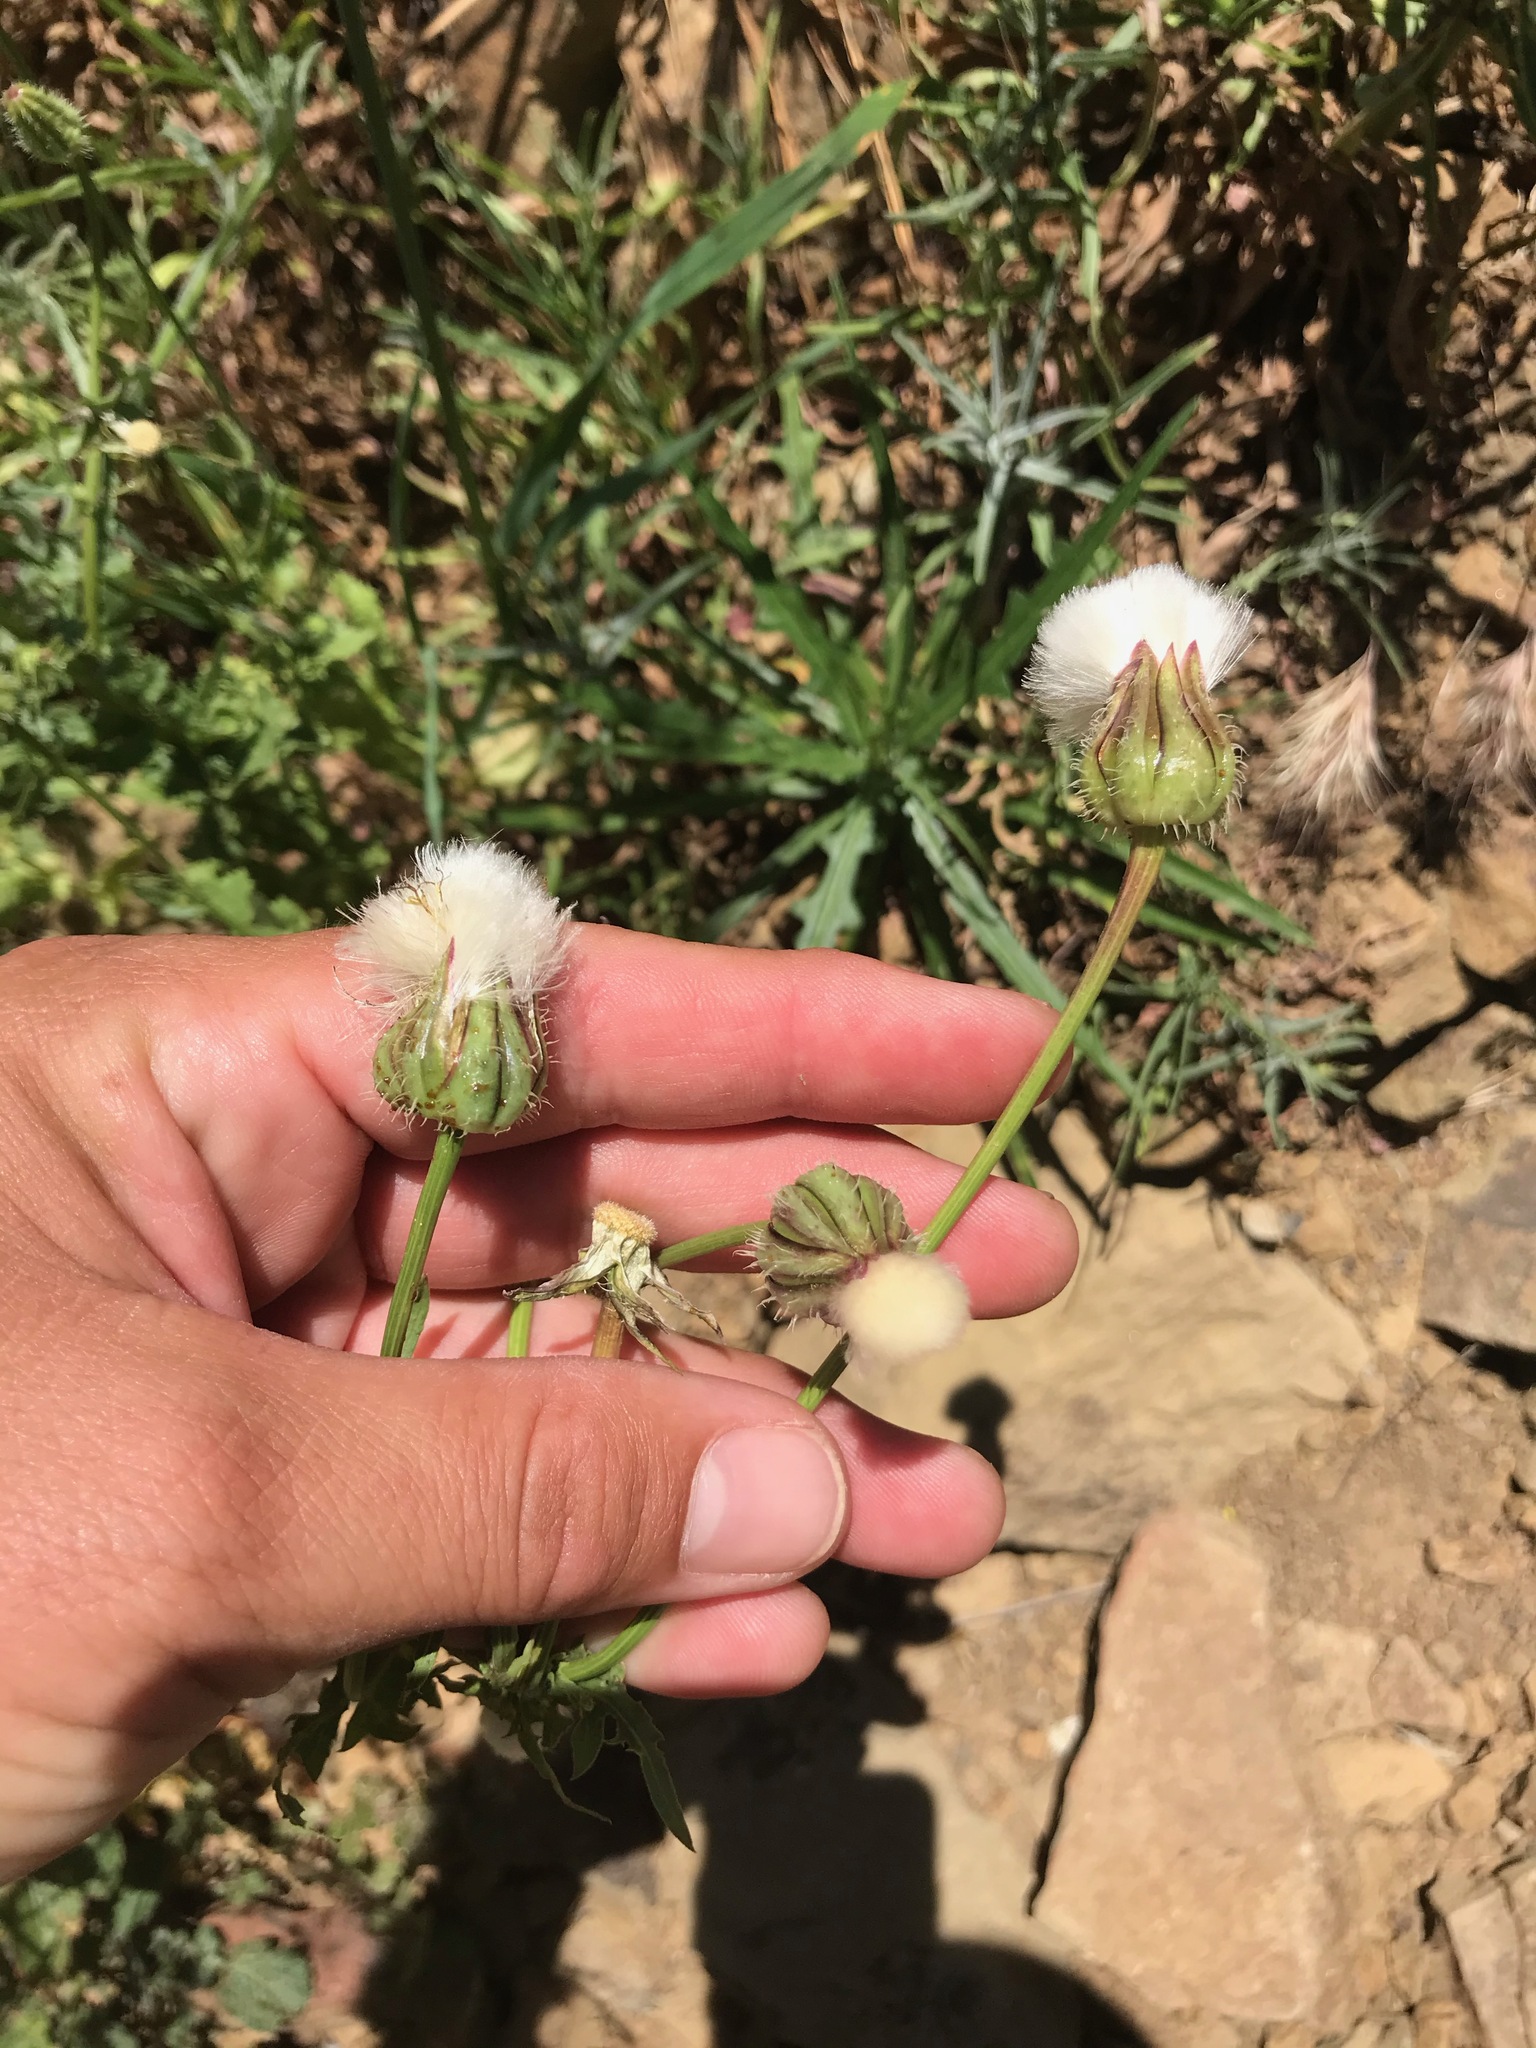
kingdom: Plantae
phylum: Tracheophyta
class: Magnoliopsida
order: Asterales
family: Asteraceae
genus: Urospermum
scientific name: Urospermum picroides
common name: False hawkbit
